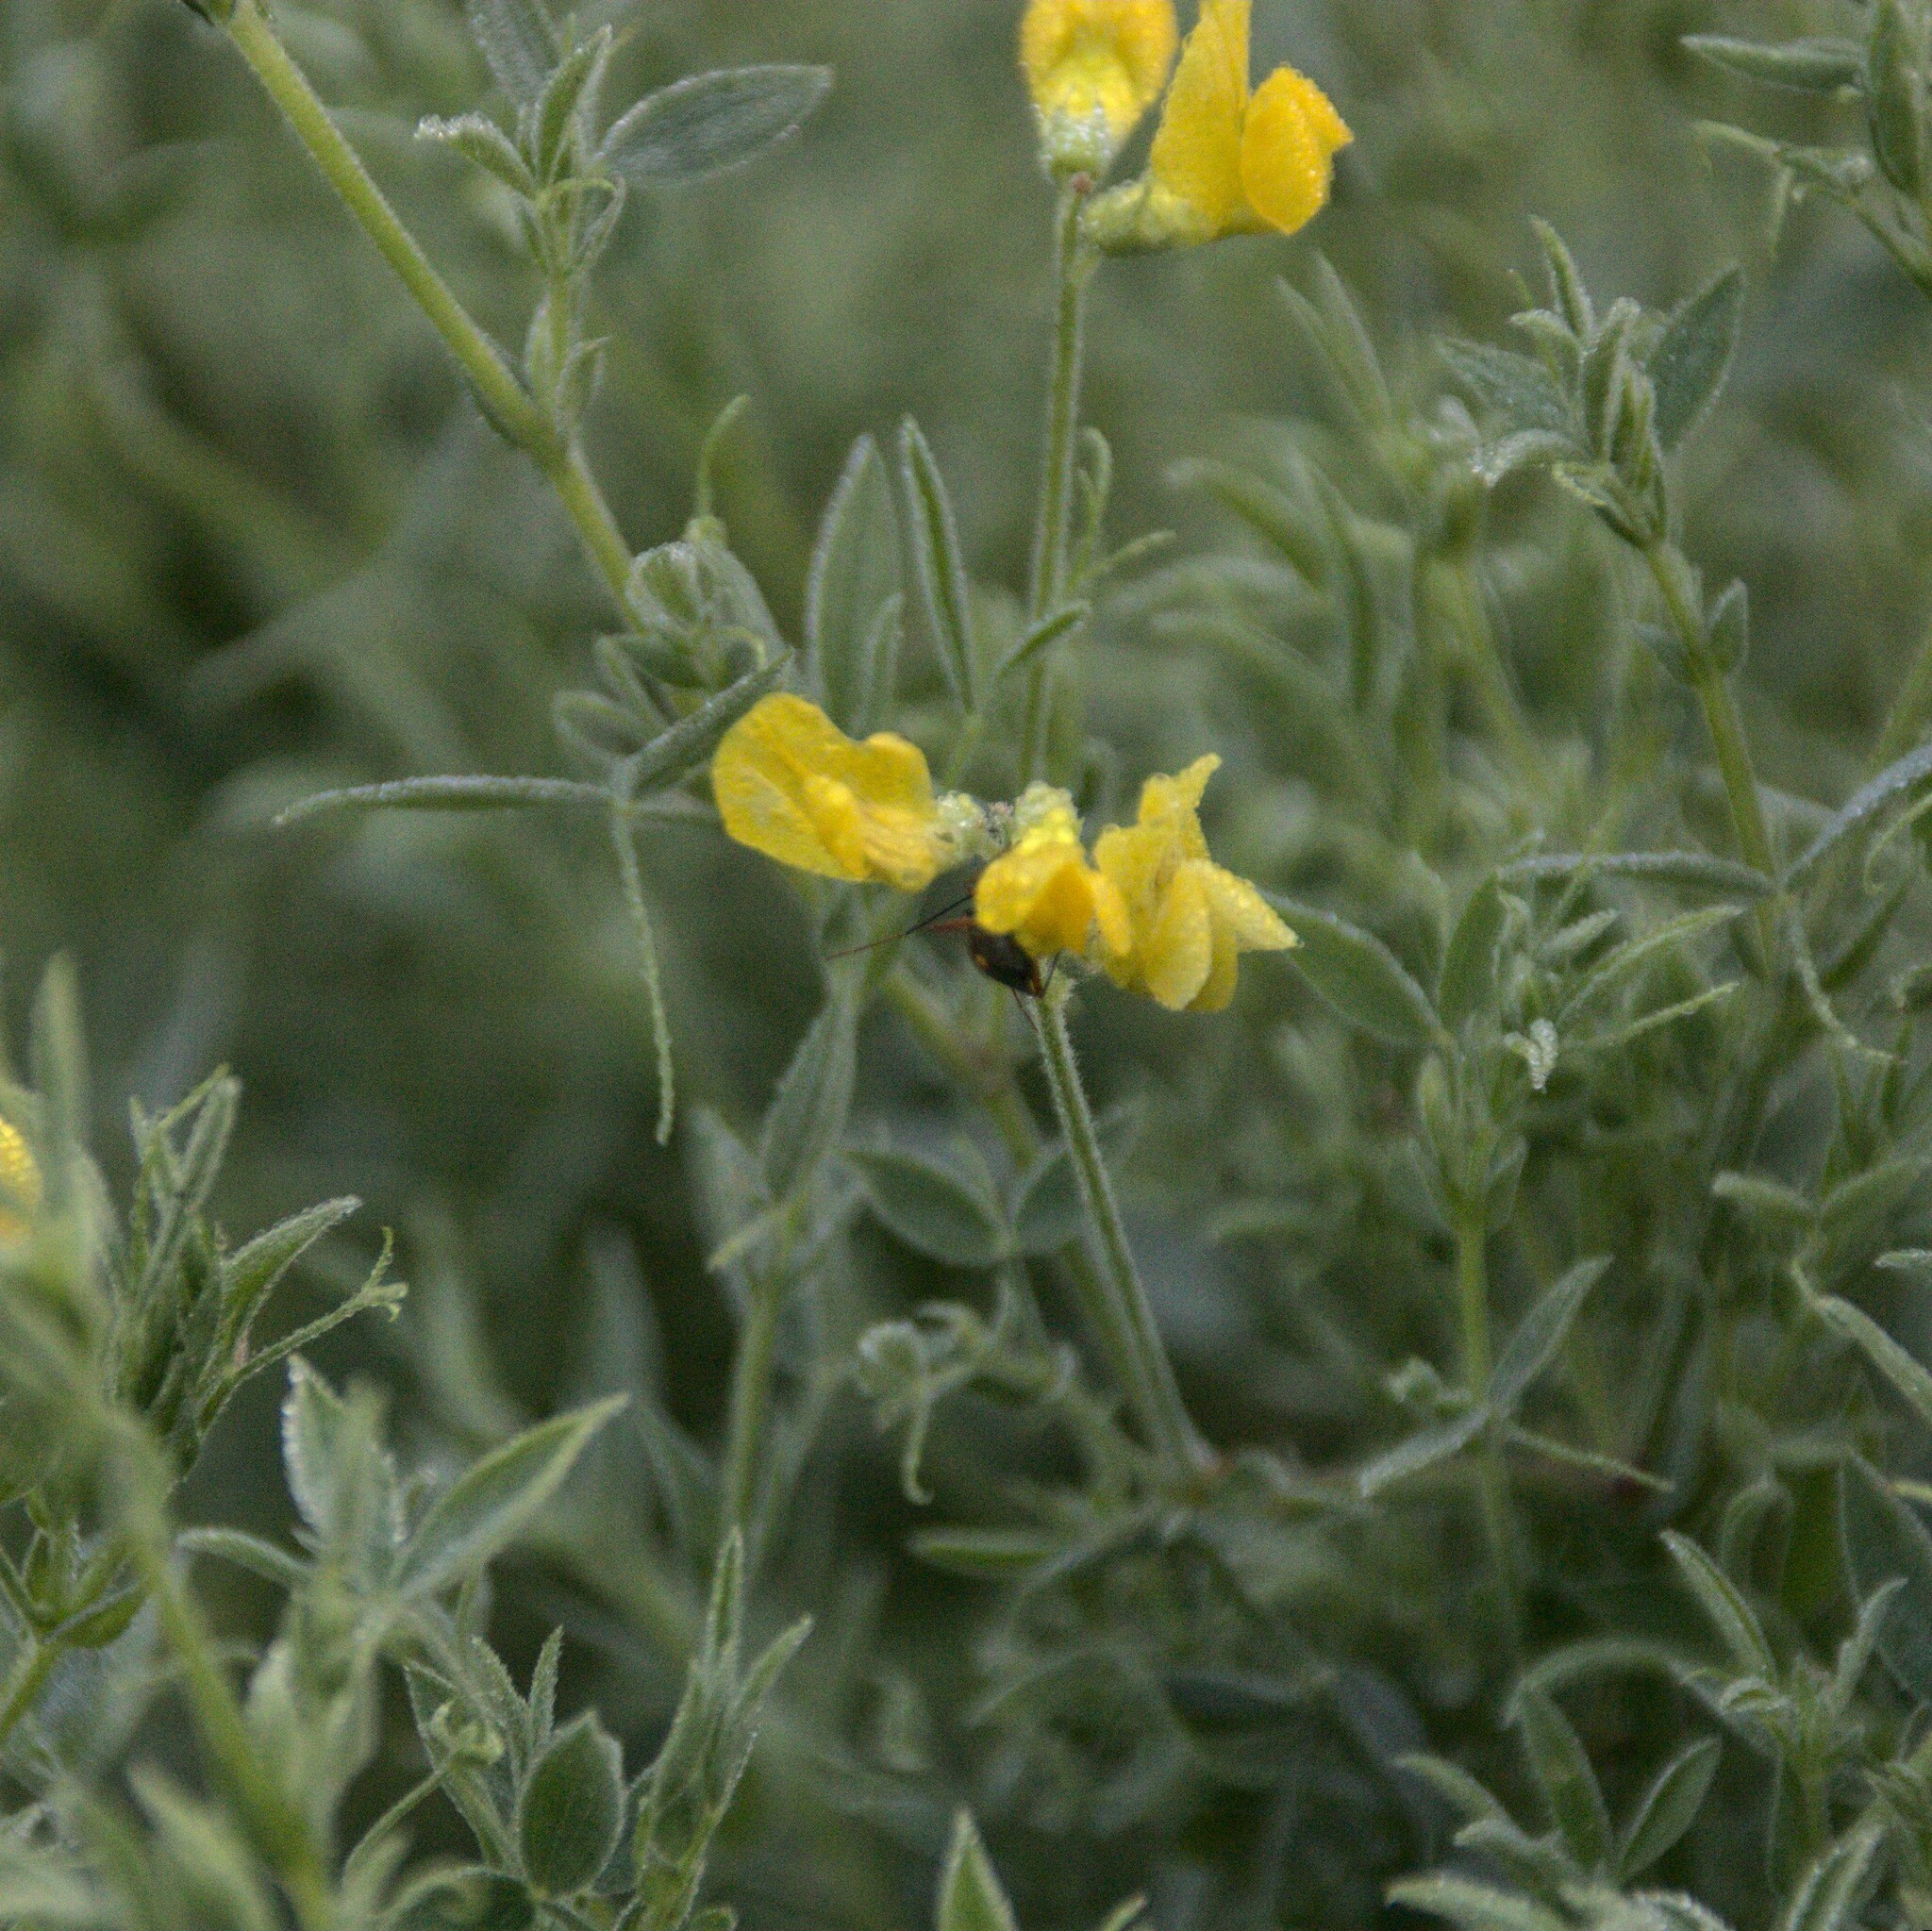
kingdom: Plantae
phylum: Tracheophyta
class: Magnoliopsida
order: Fabales
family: Fabaceae
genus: Lathyrus
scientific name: Lathyrus pratensis
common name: Meadow vetchling
